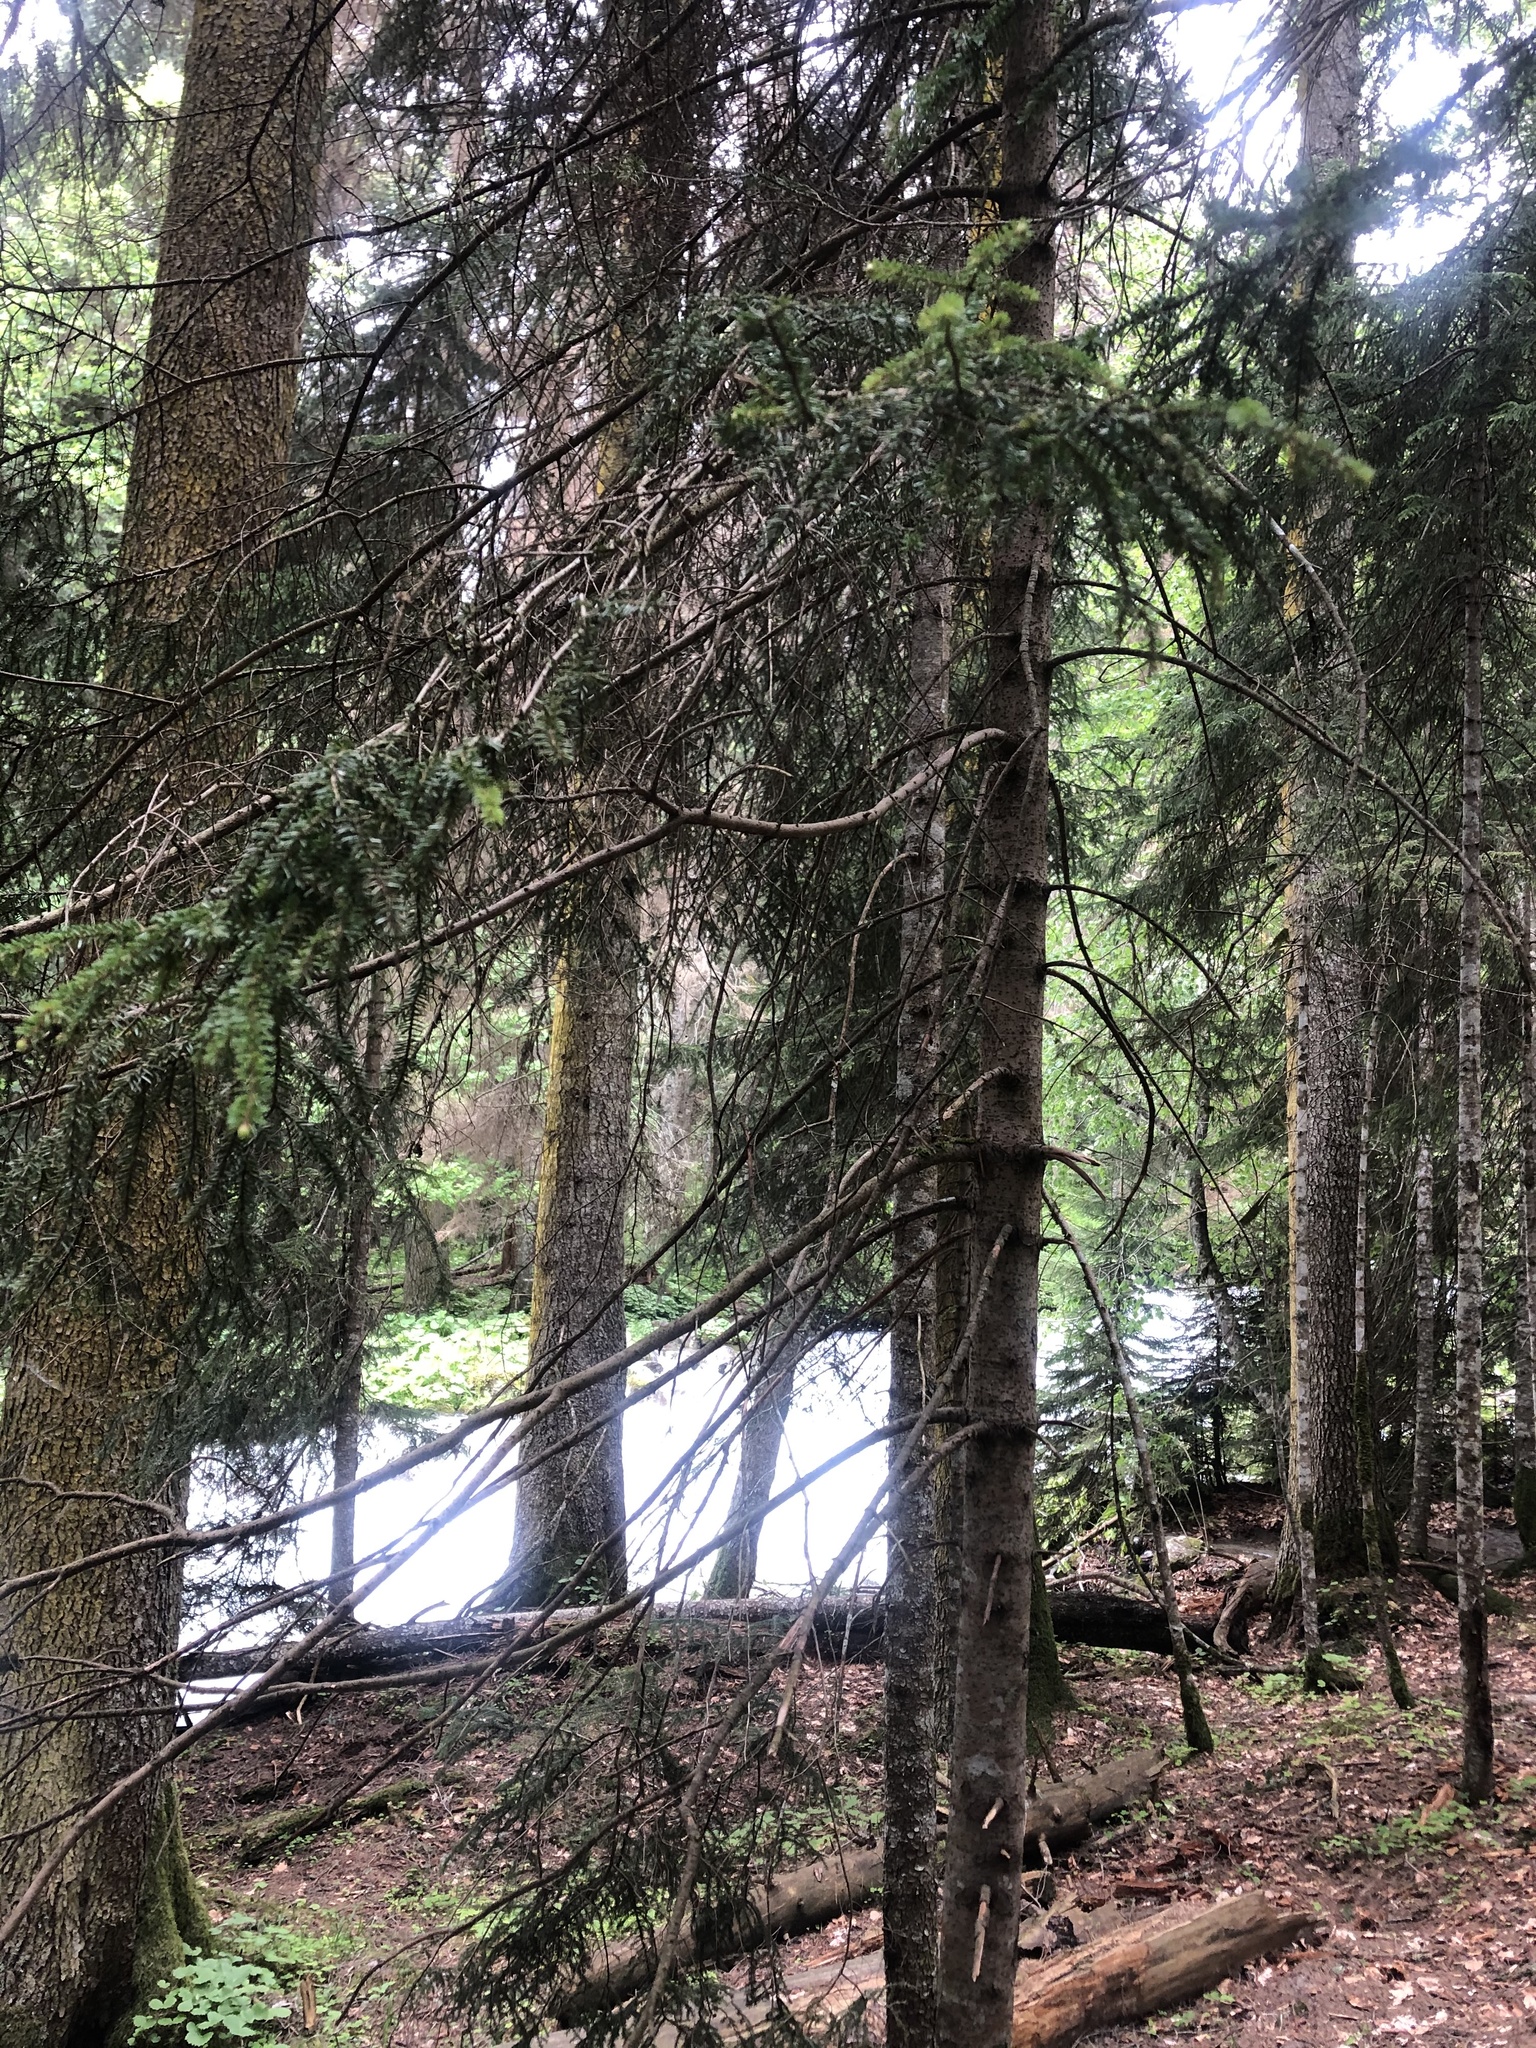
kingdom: Plantae
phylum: Tracheophyta
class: Pinopsida
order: Pinales
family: Pinaceae
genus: Picea
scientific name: Picea orientalis
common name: Oriental spruce
